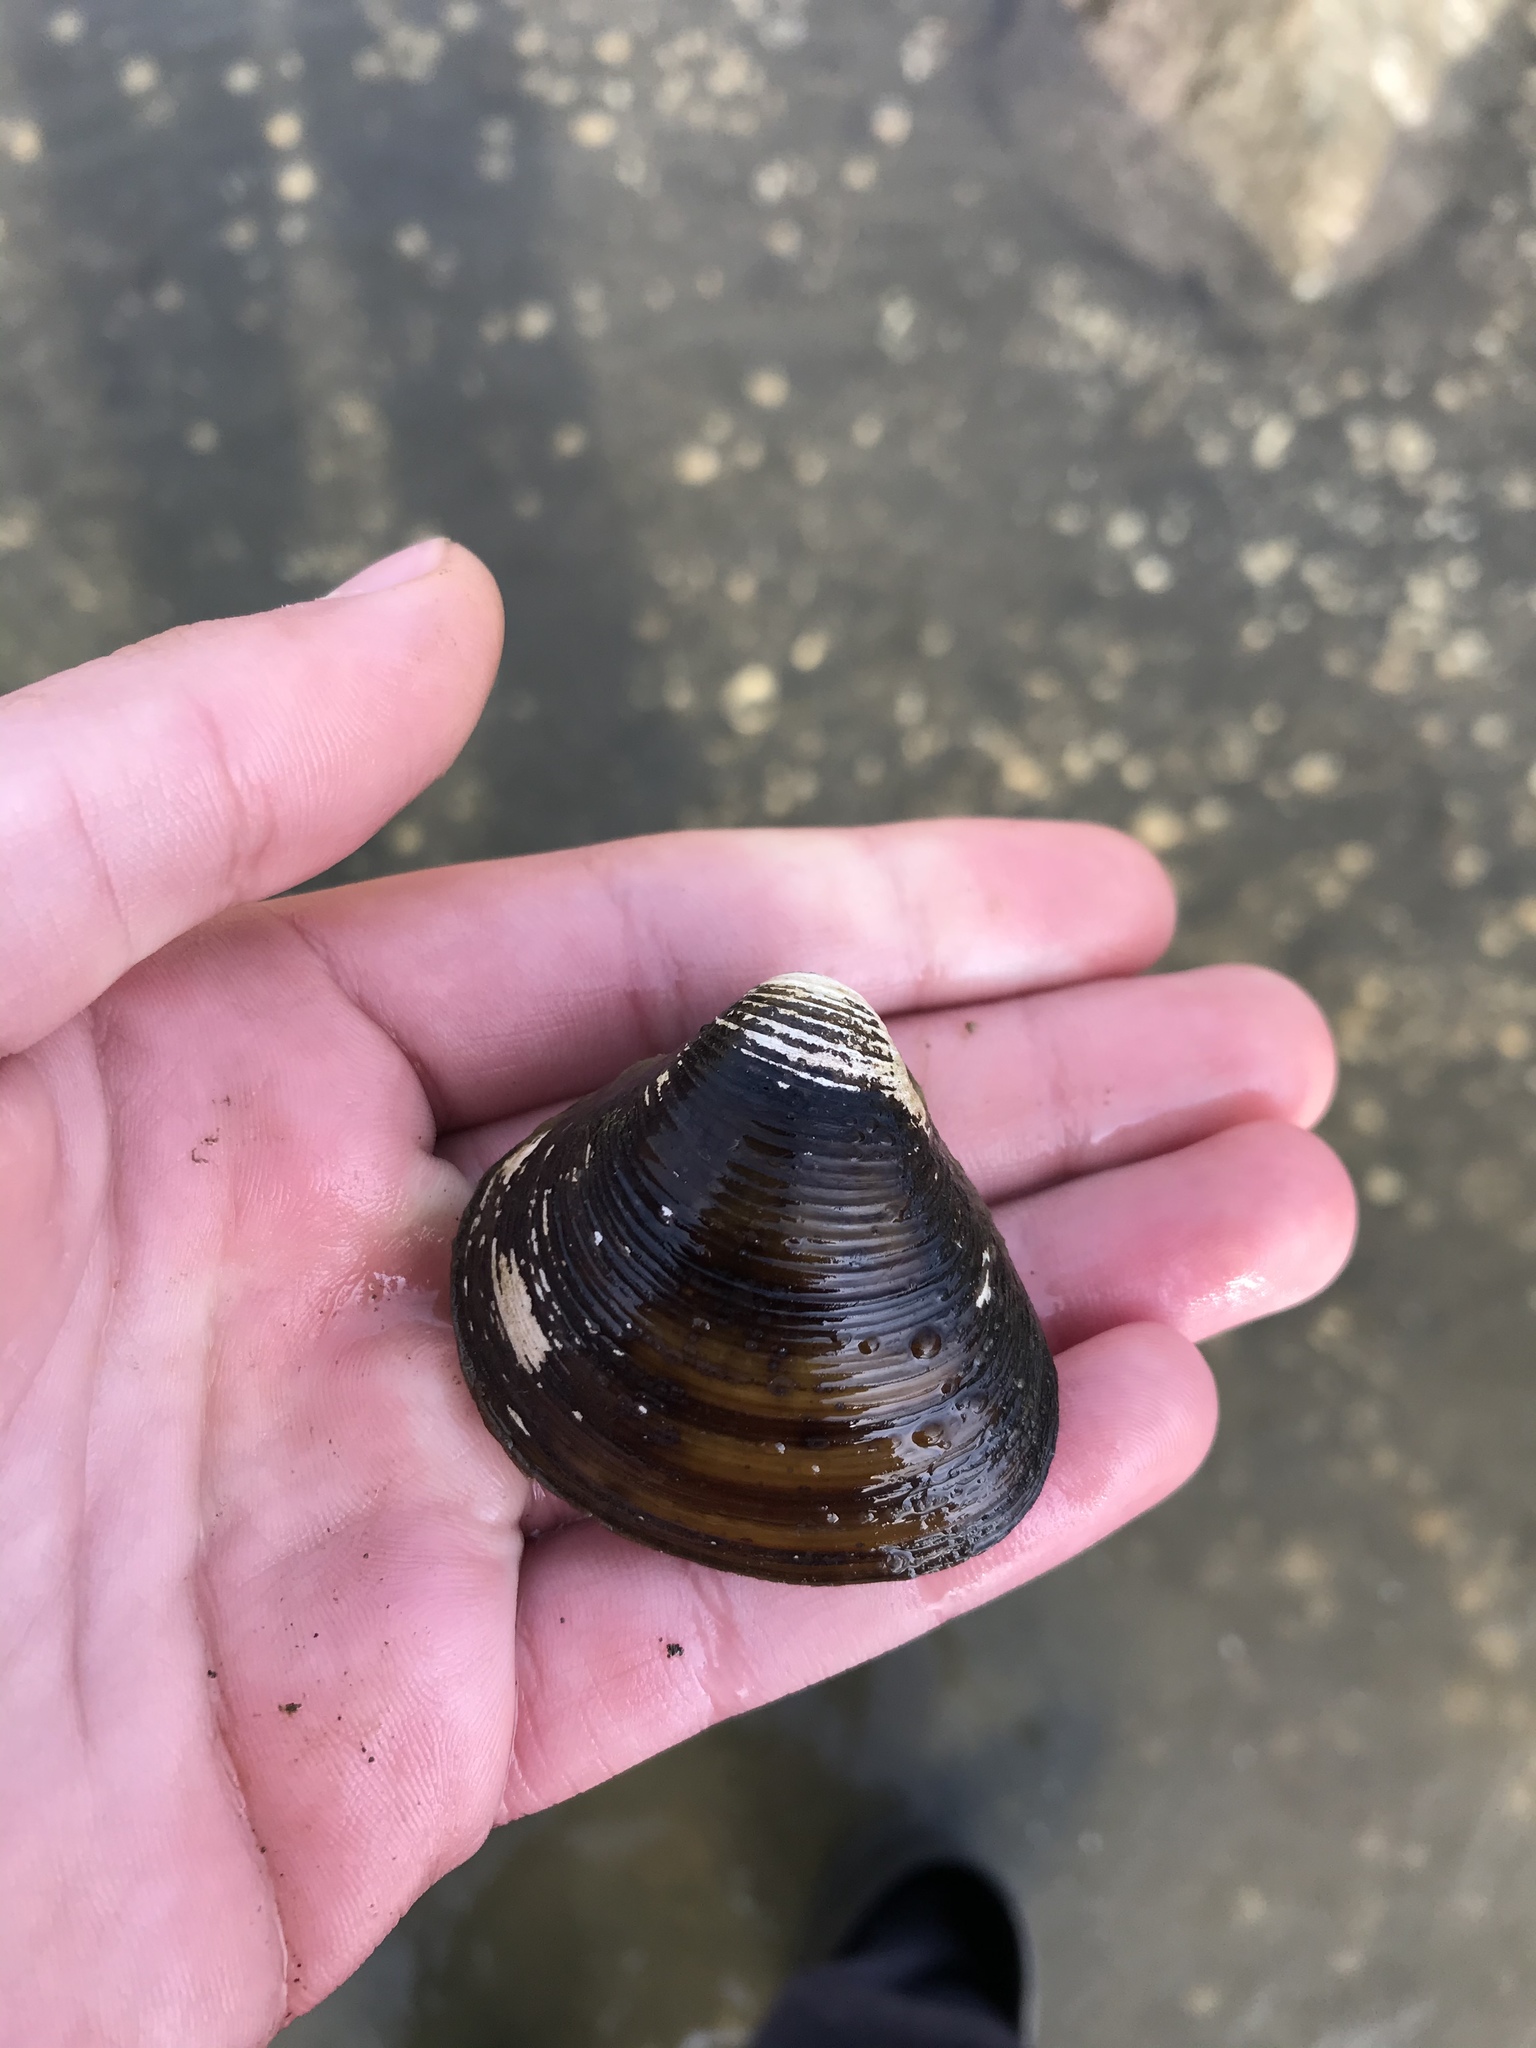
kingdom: Animalia
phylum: Mollusca
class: Bivalvia
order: Venerida
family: Cyrenidae
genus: Corbicula
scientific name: Corbicula fluminea
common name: Asian clam
